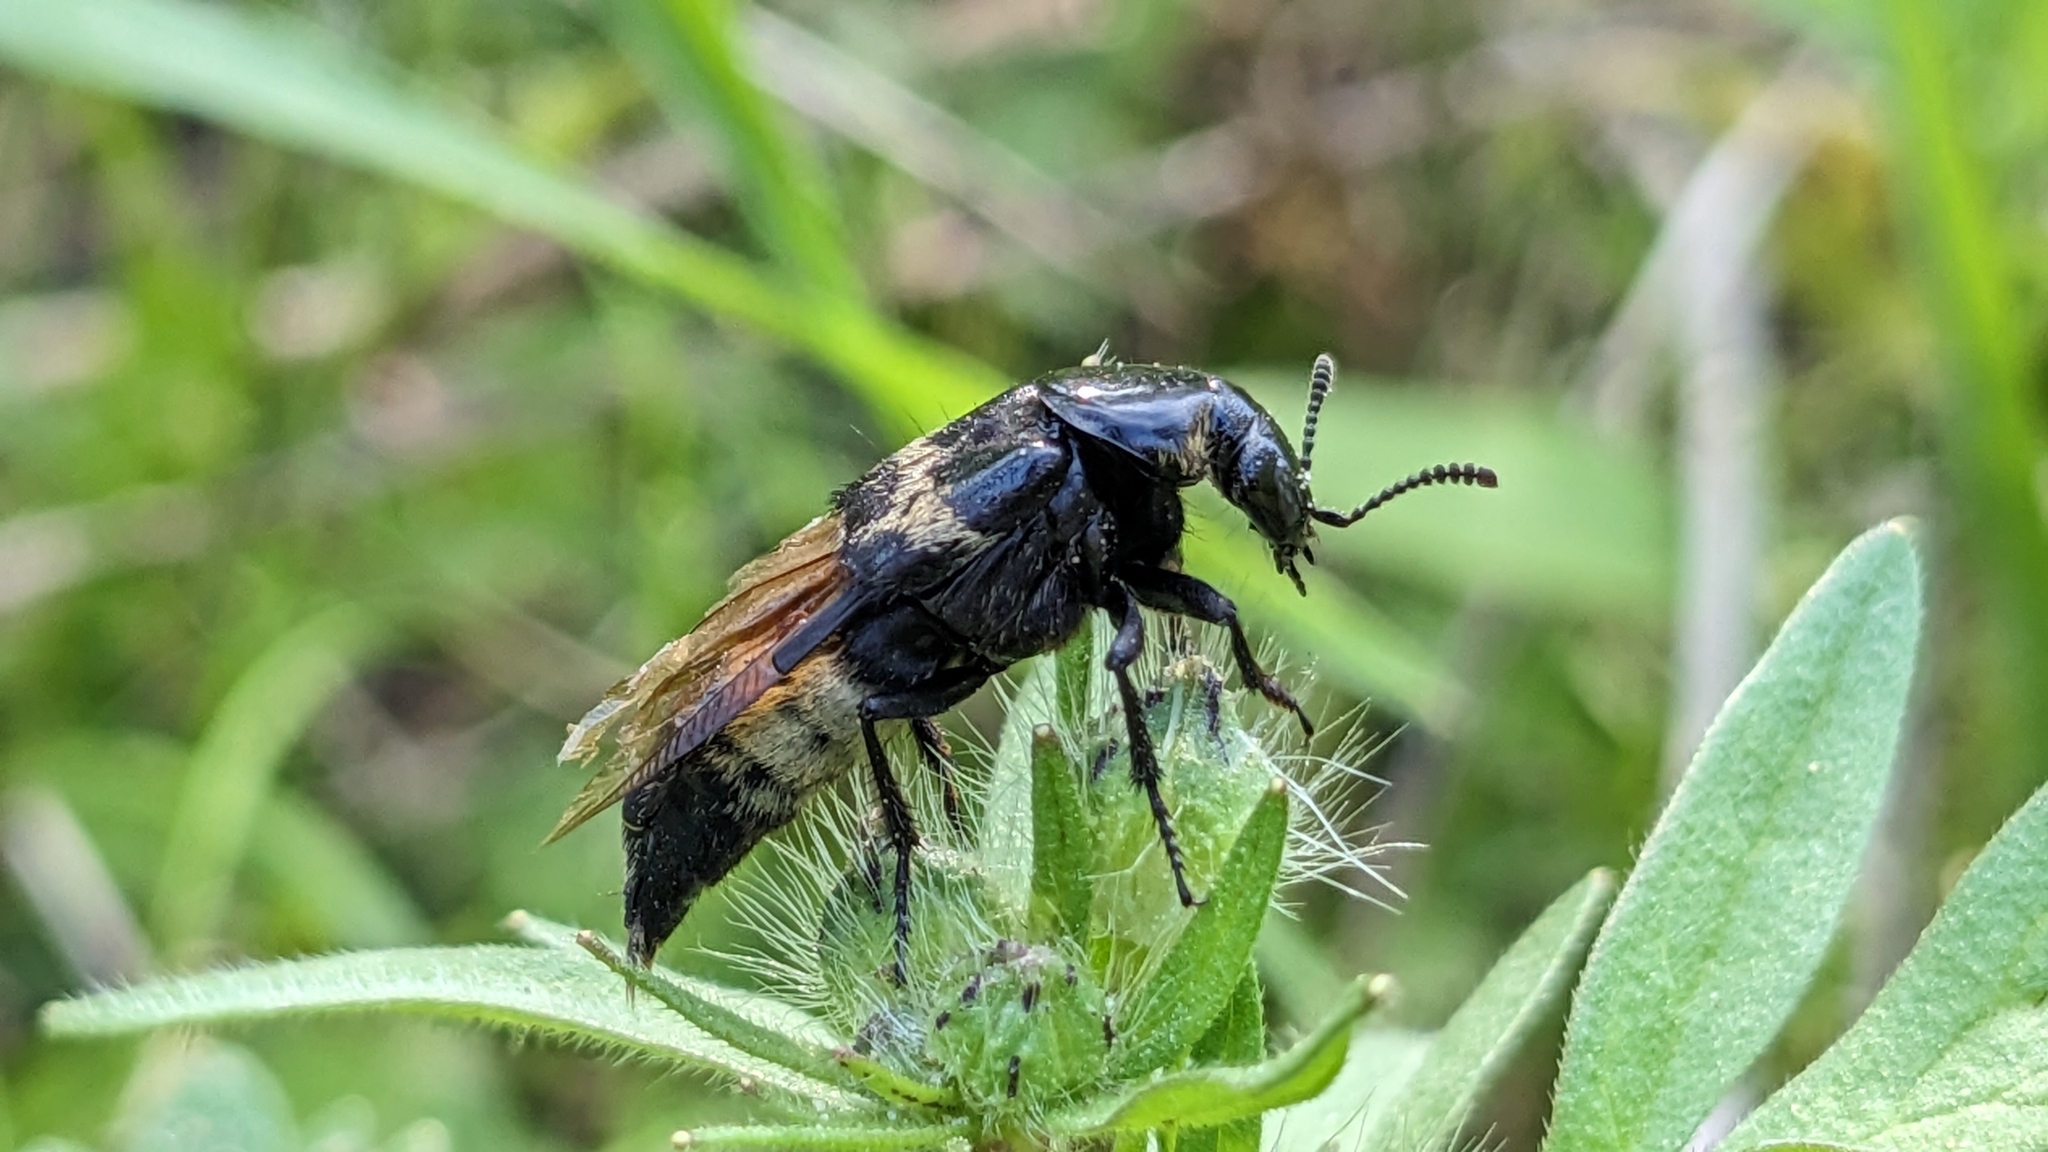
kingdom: Animalia
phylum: Arthropoda
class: Insecta
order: Coleoptera
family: Staphylinidae
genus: Creophilus
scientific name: Creophilus maxillosus
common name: Hairy rove beetle
